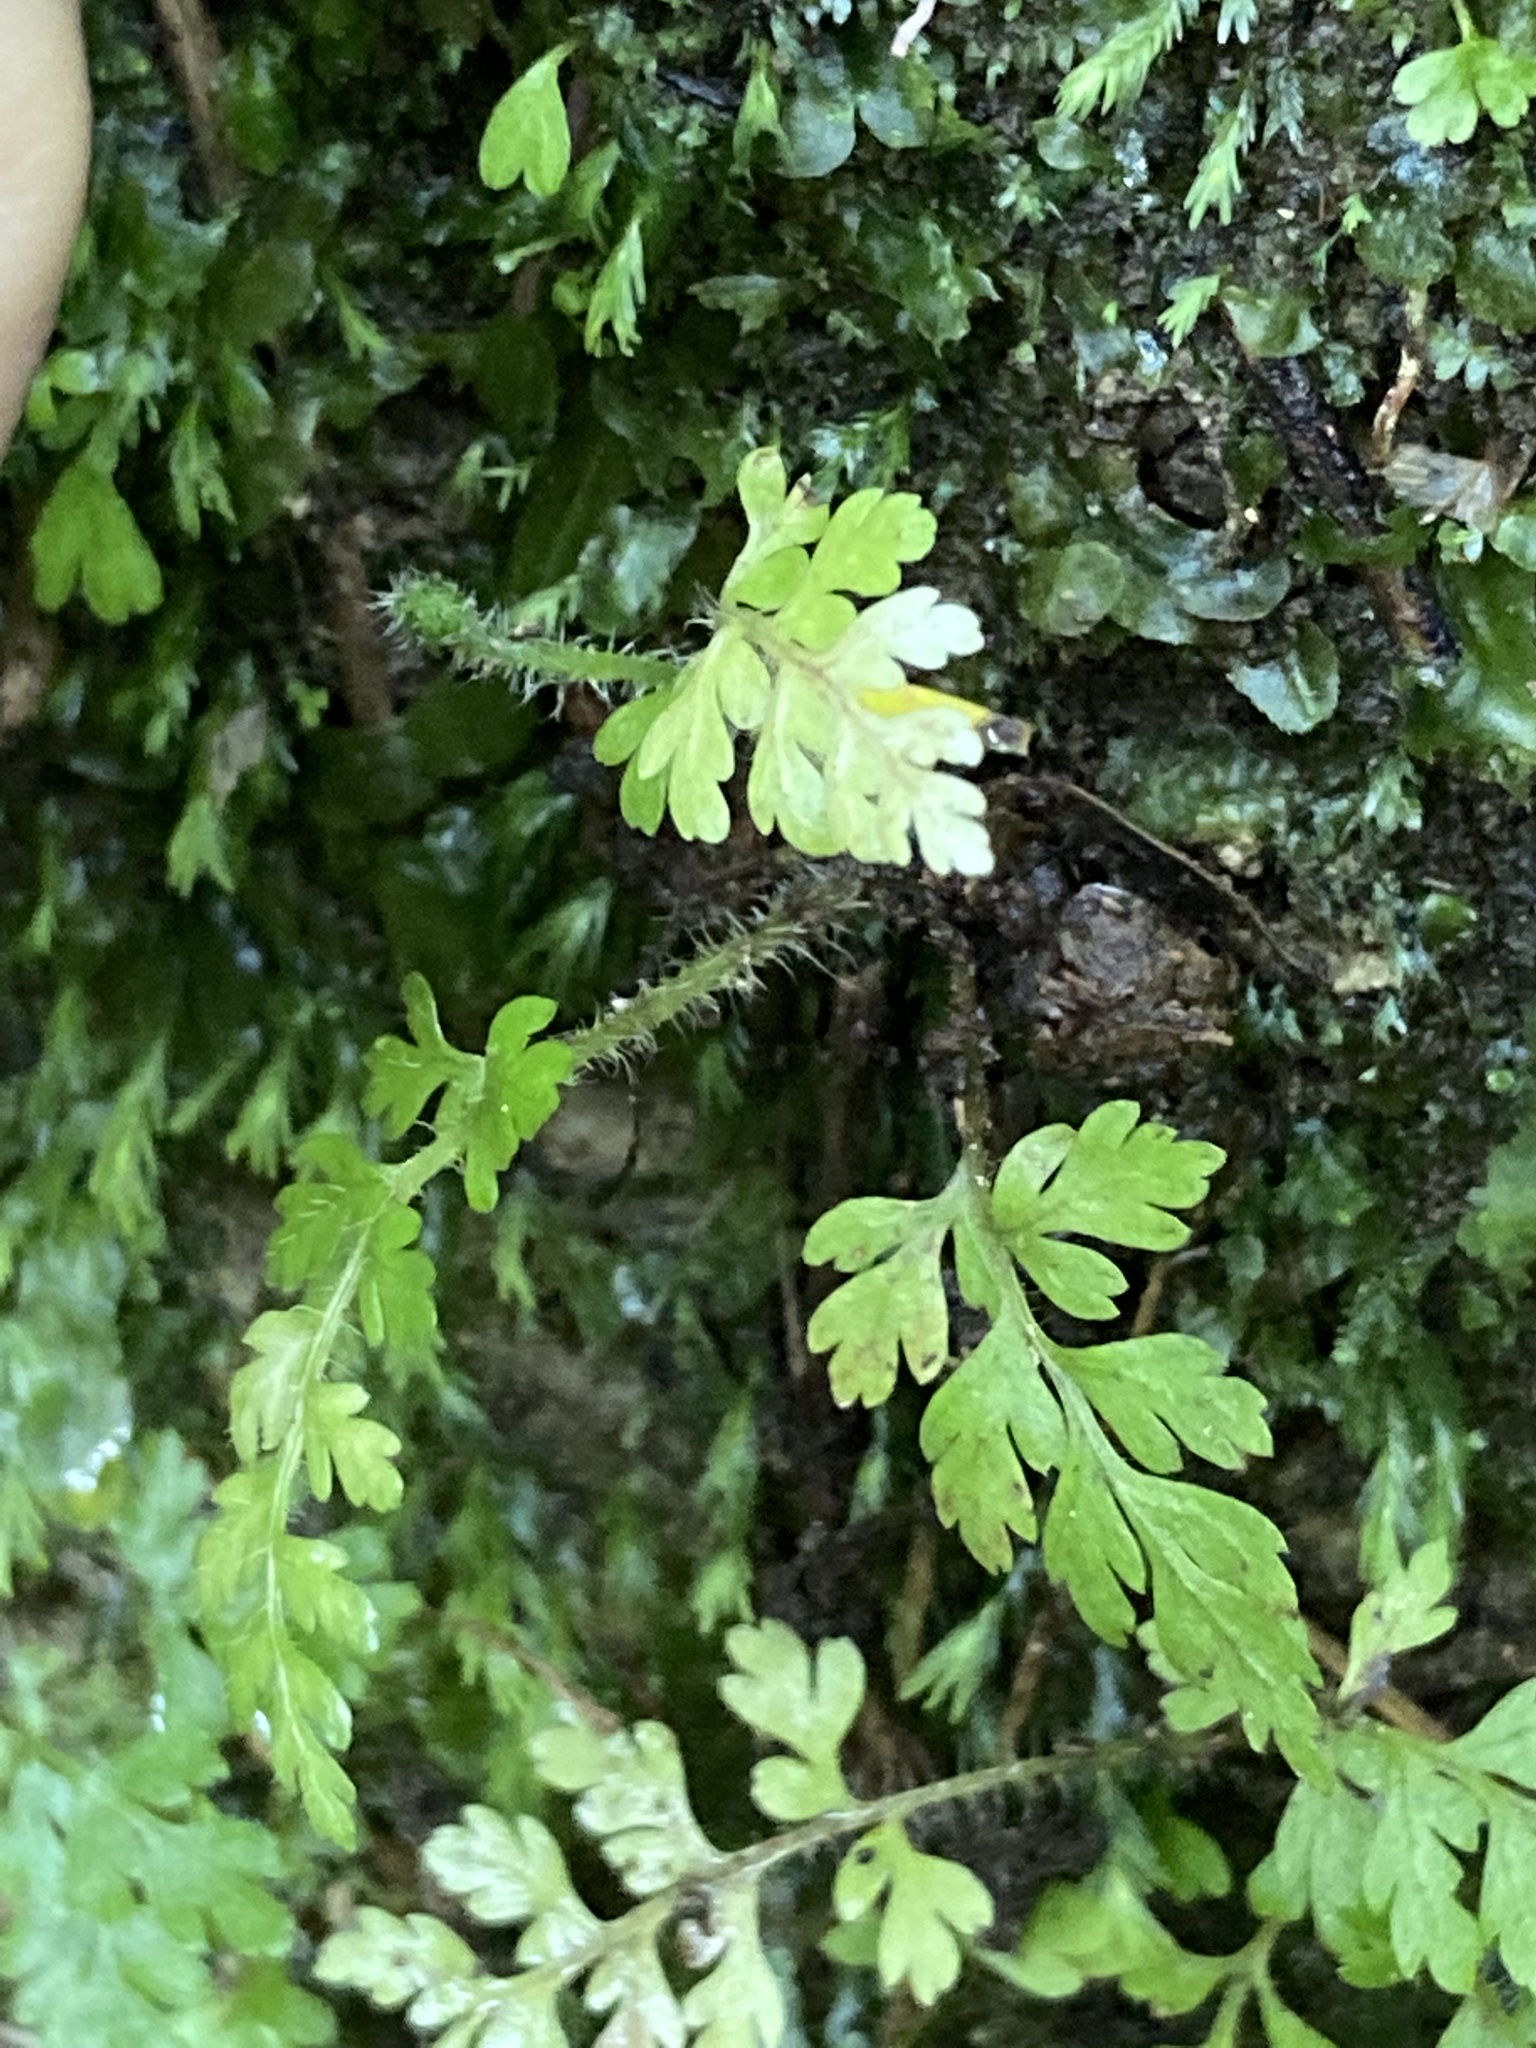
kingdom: Plantae
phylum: Tracheophyta
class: Polypodiopsida
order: Cyatheales
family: Cyatheaceae
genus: Sphaeropteris
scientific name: Sphaeropteris medullaris
